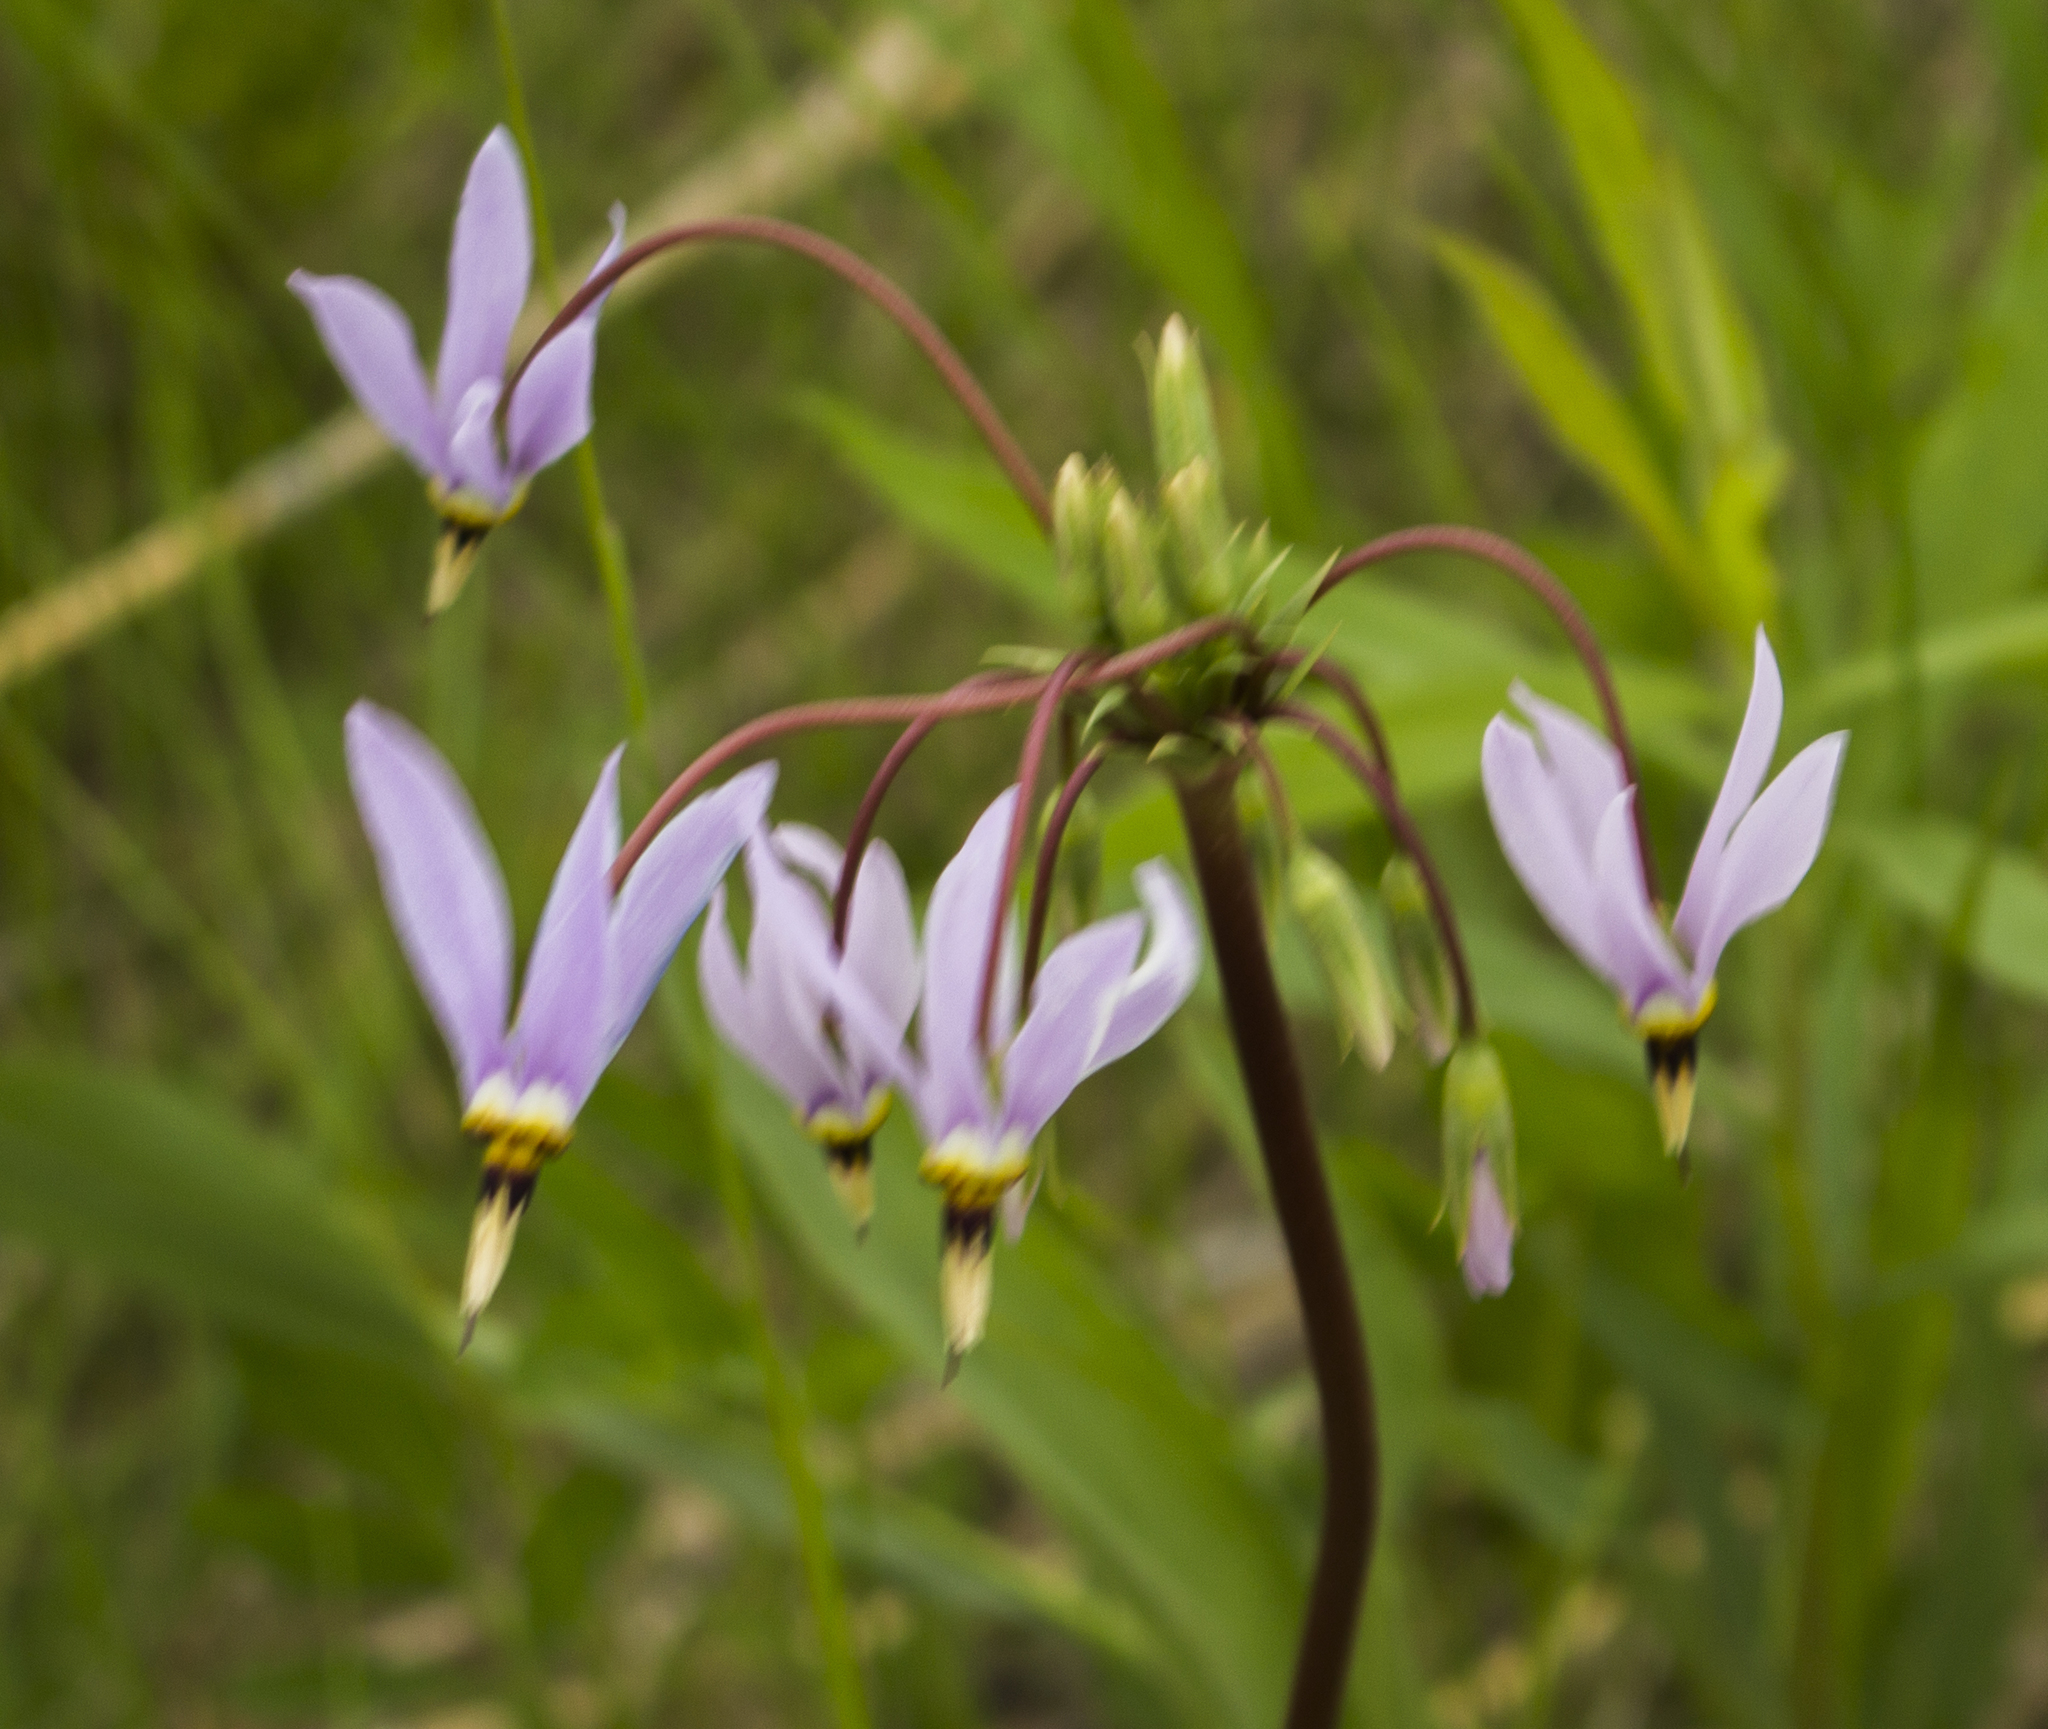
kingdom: Plantae
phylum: Tracheophyta
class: Magnoliopsida
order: Ericales
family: Primulaceae
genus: Dodecatheon
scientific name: Dodecatheon meadia
